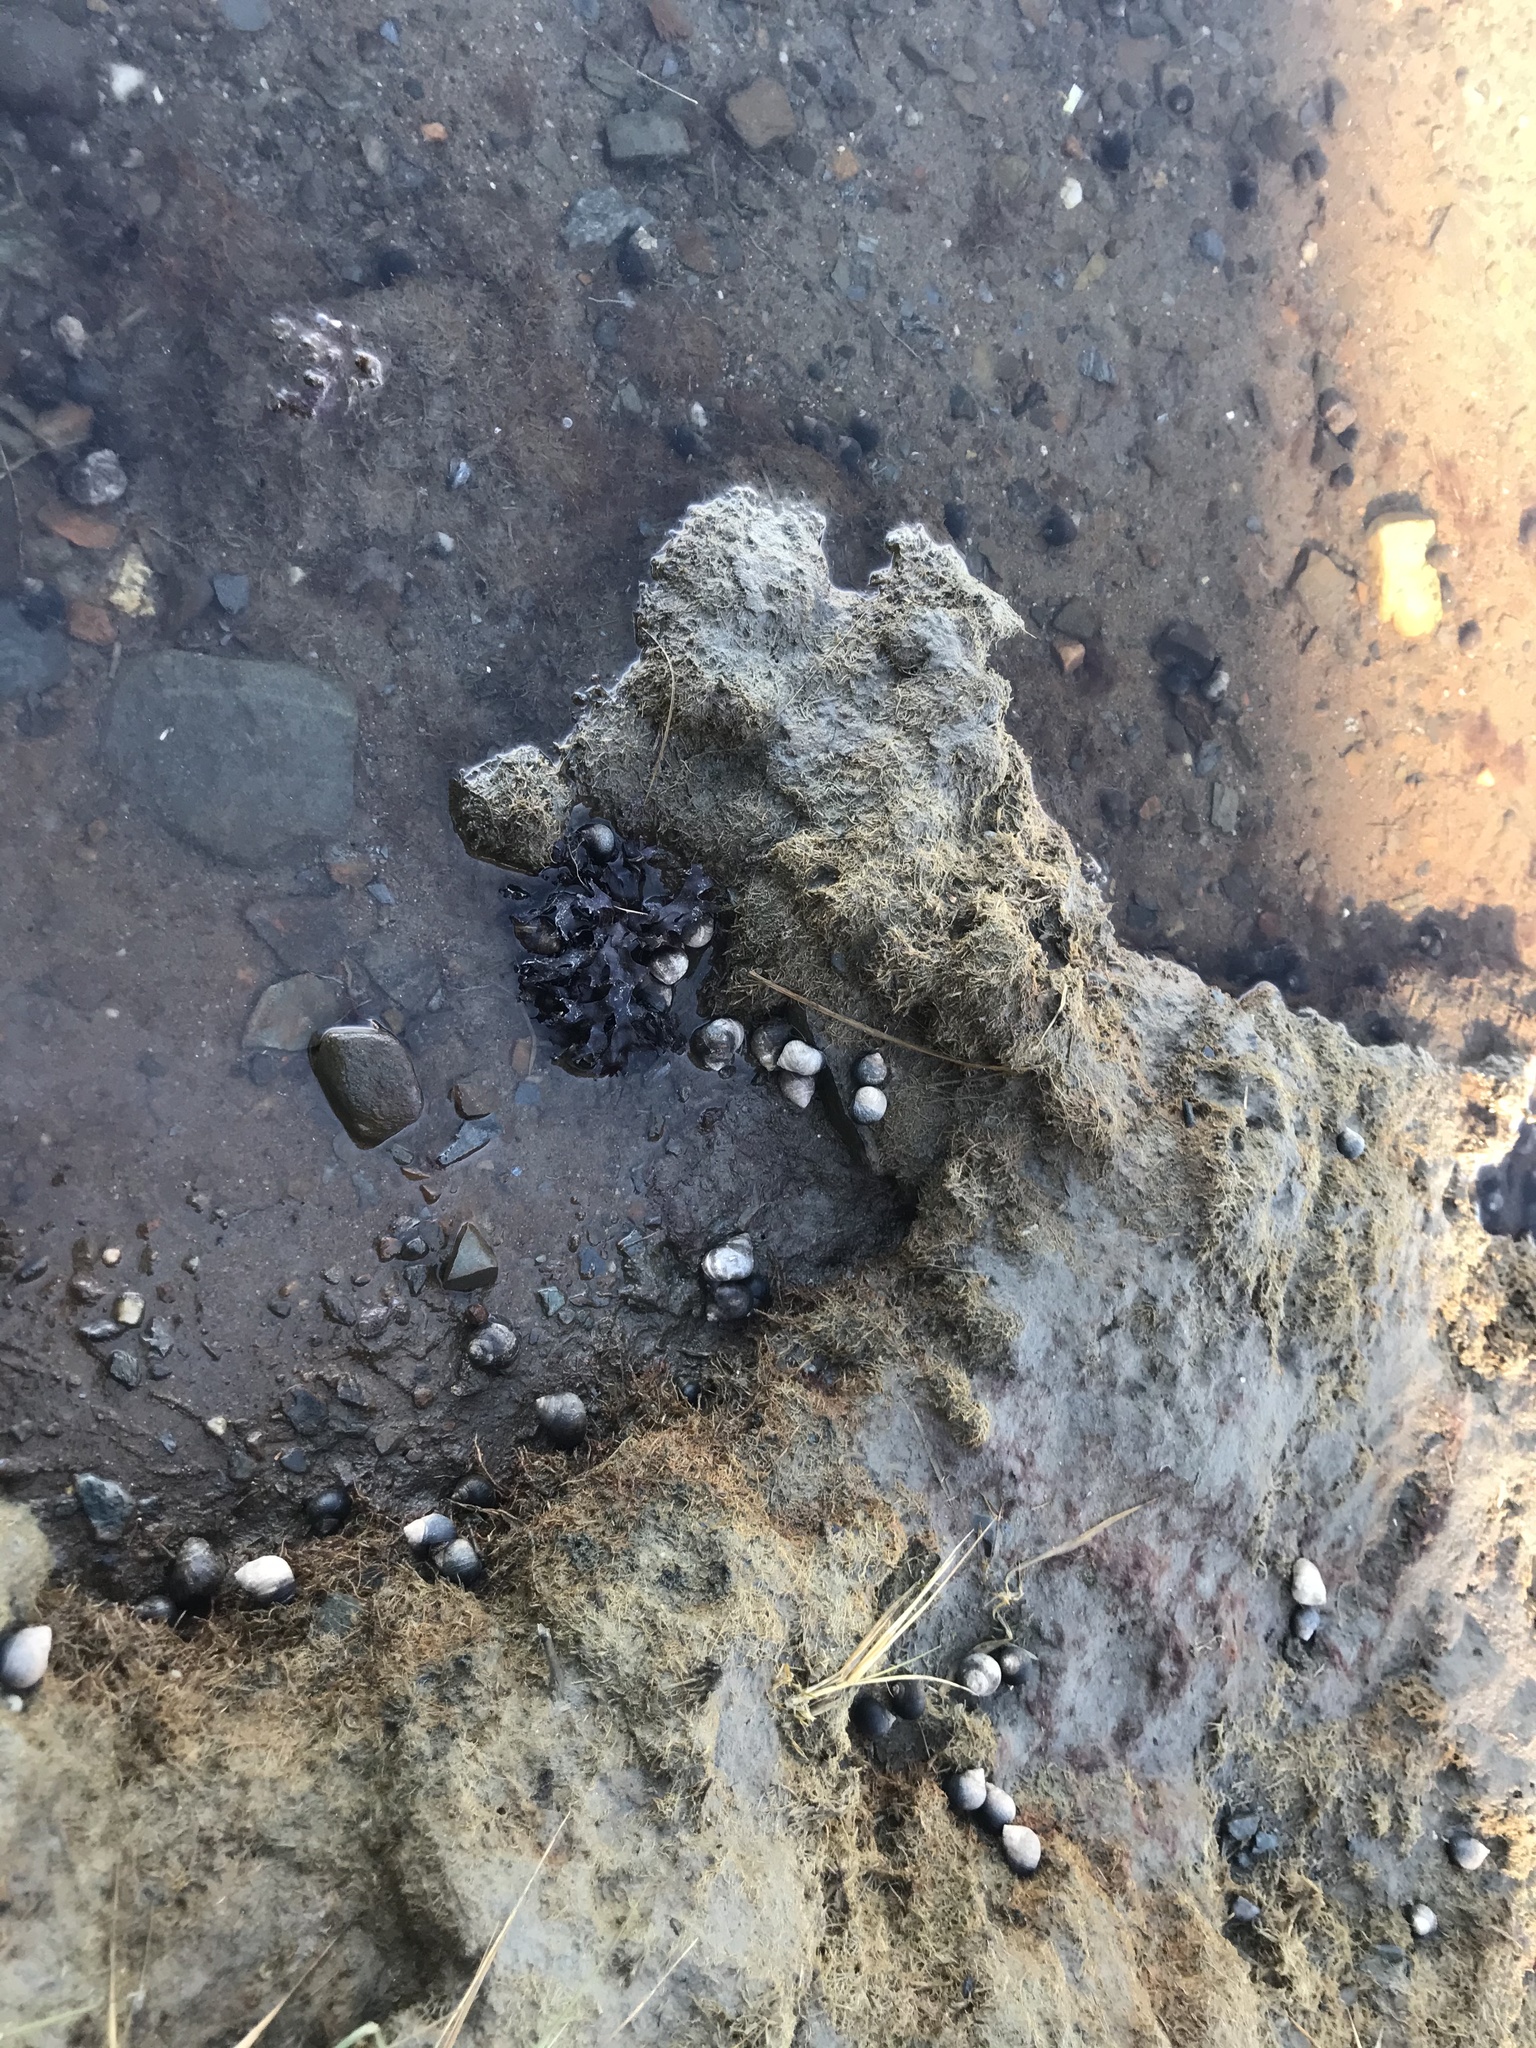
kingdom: Plantae
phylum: Rhodophyta
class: Florideophyceae
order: Gigartinales
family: Gigartinaceae
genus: Chondrus
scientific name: Chondrus crispus
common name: Carrageen
